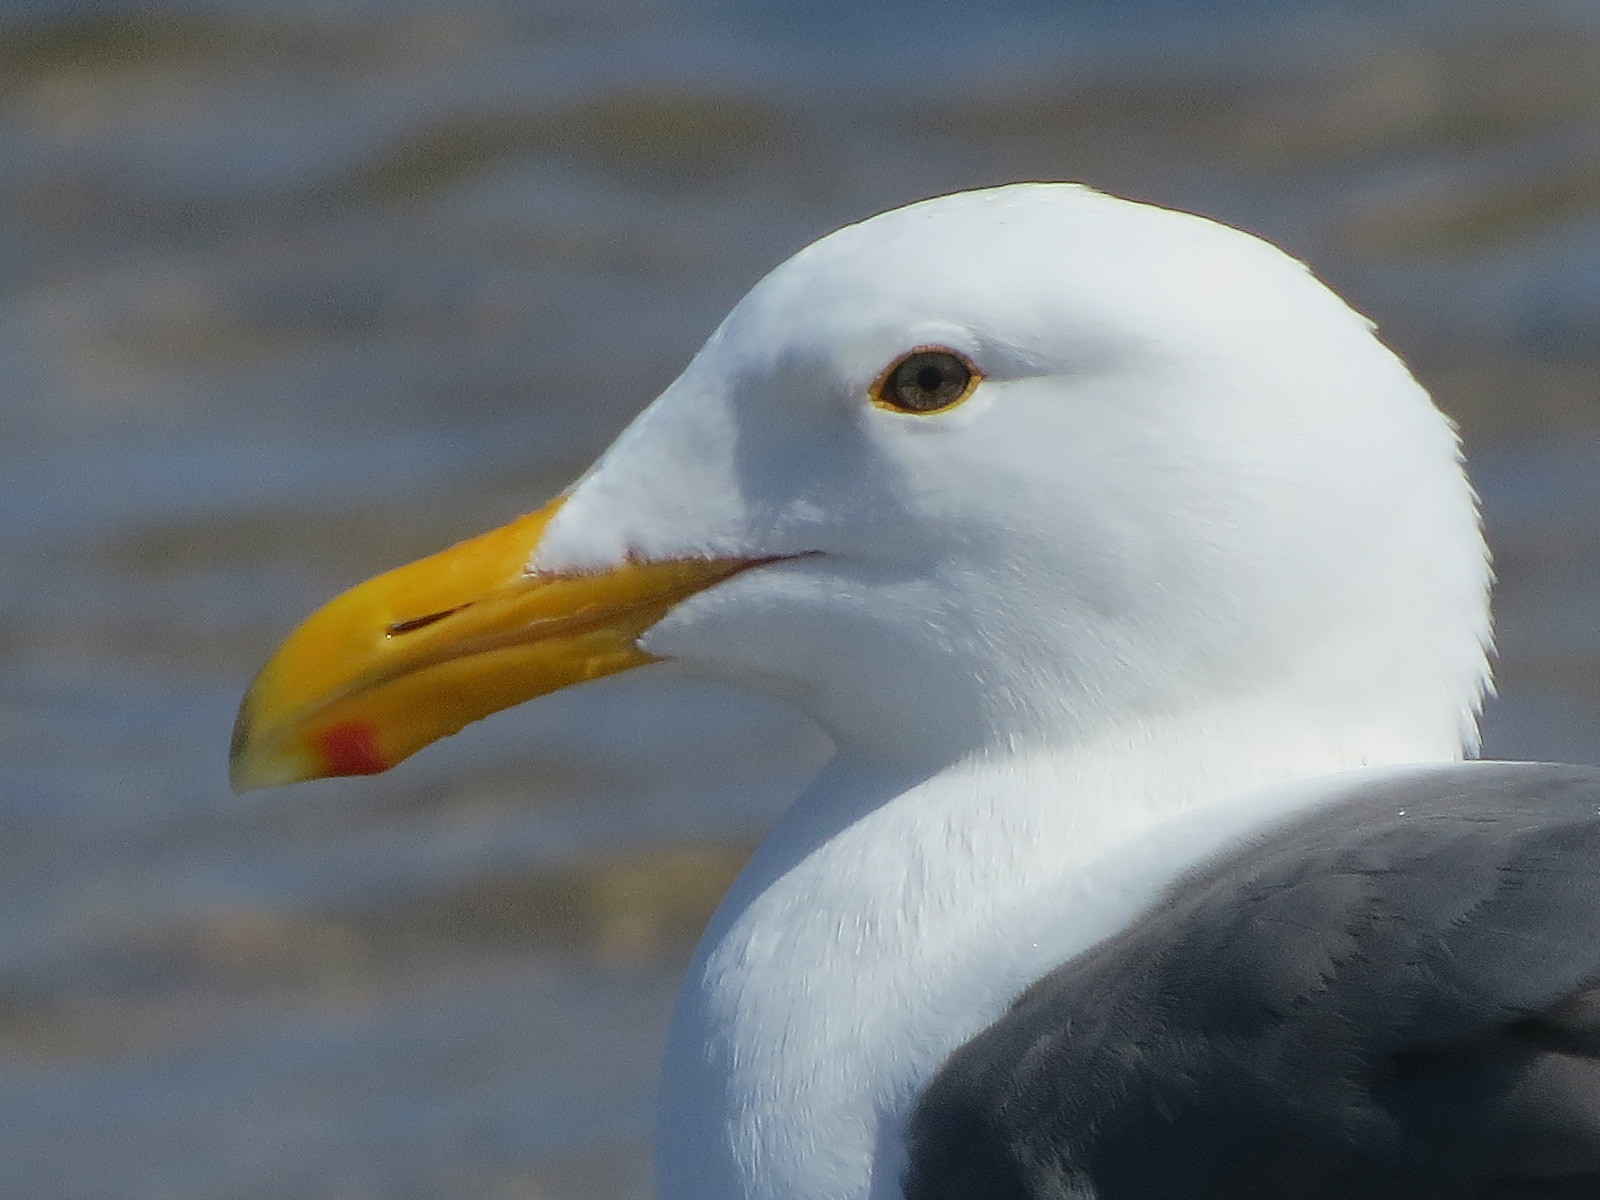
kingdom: Animalia
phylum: Chordata
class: Aves
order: Charadriiformes
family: Laridae
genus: Larus
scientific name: Larus occidentalis
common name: Western gull
